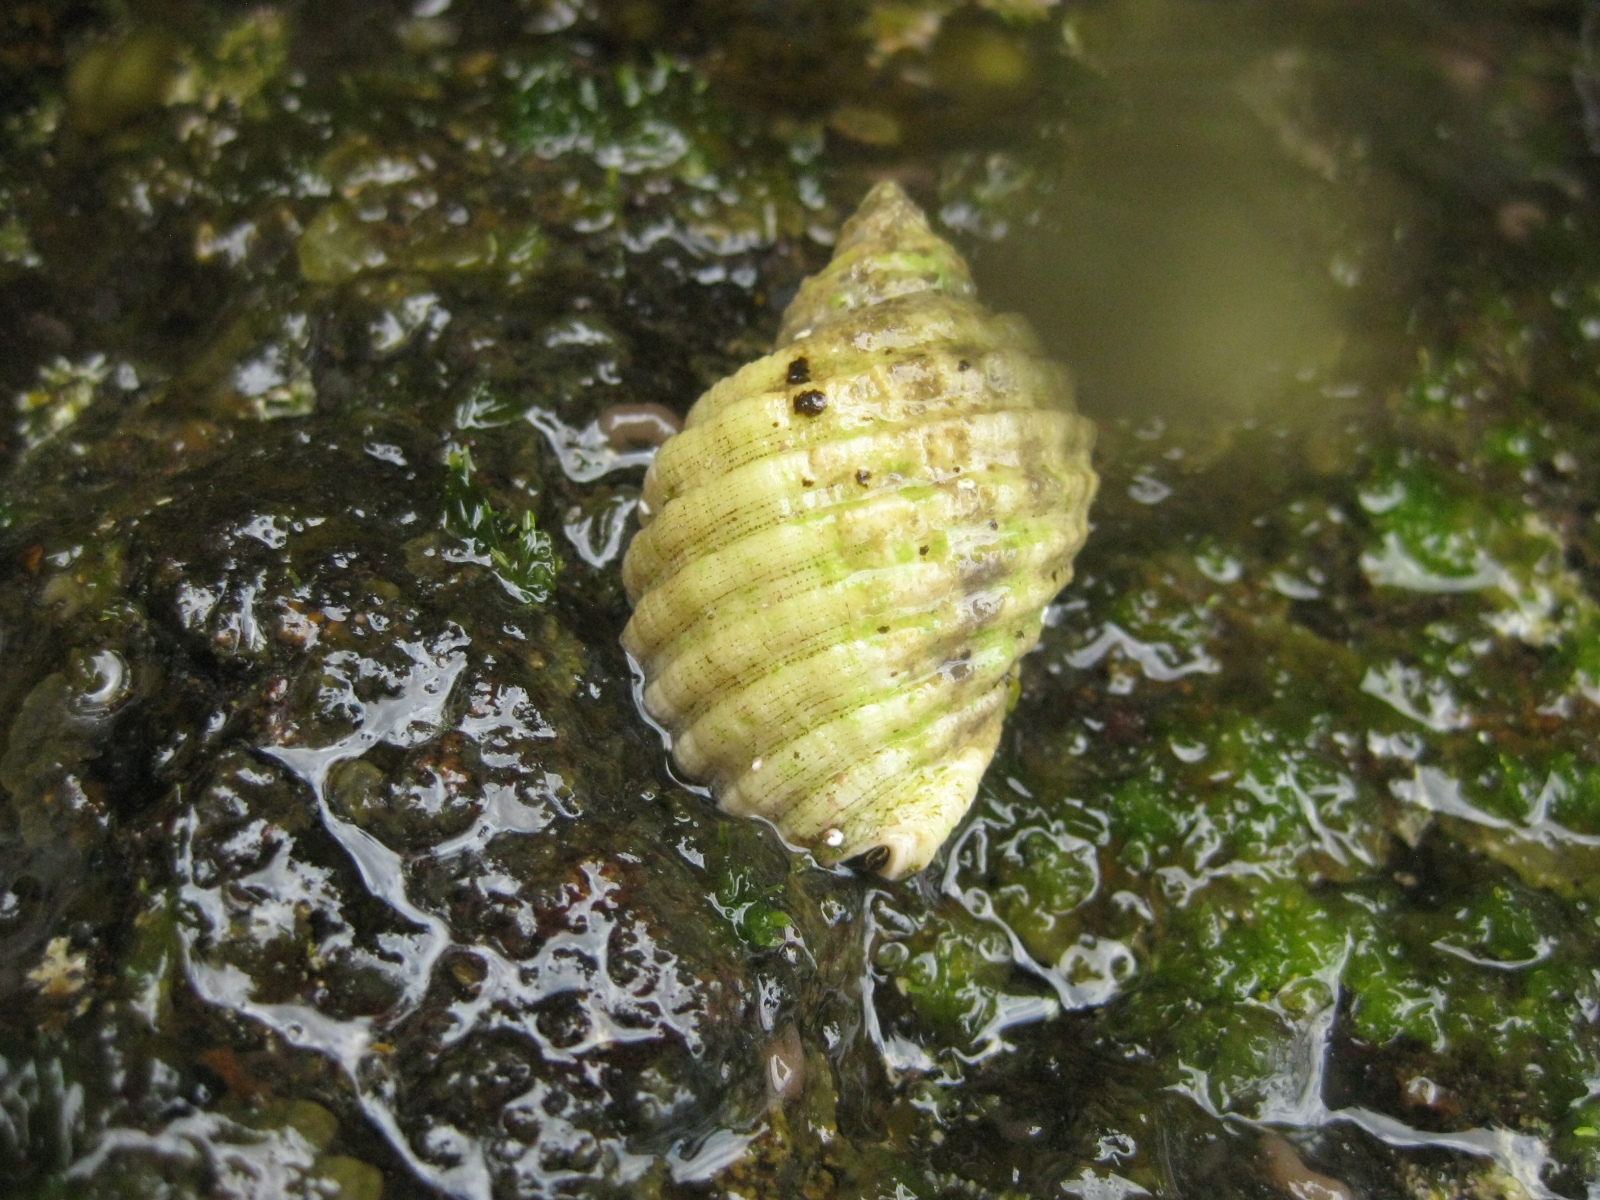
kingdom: Animalia
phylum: Mollusca
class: Gastropoda
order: Neogastropoda
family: Muricidae
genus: Dicathais
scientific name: Dicathais orbita
